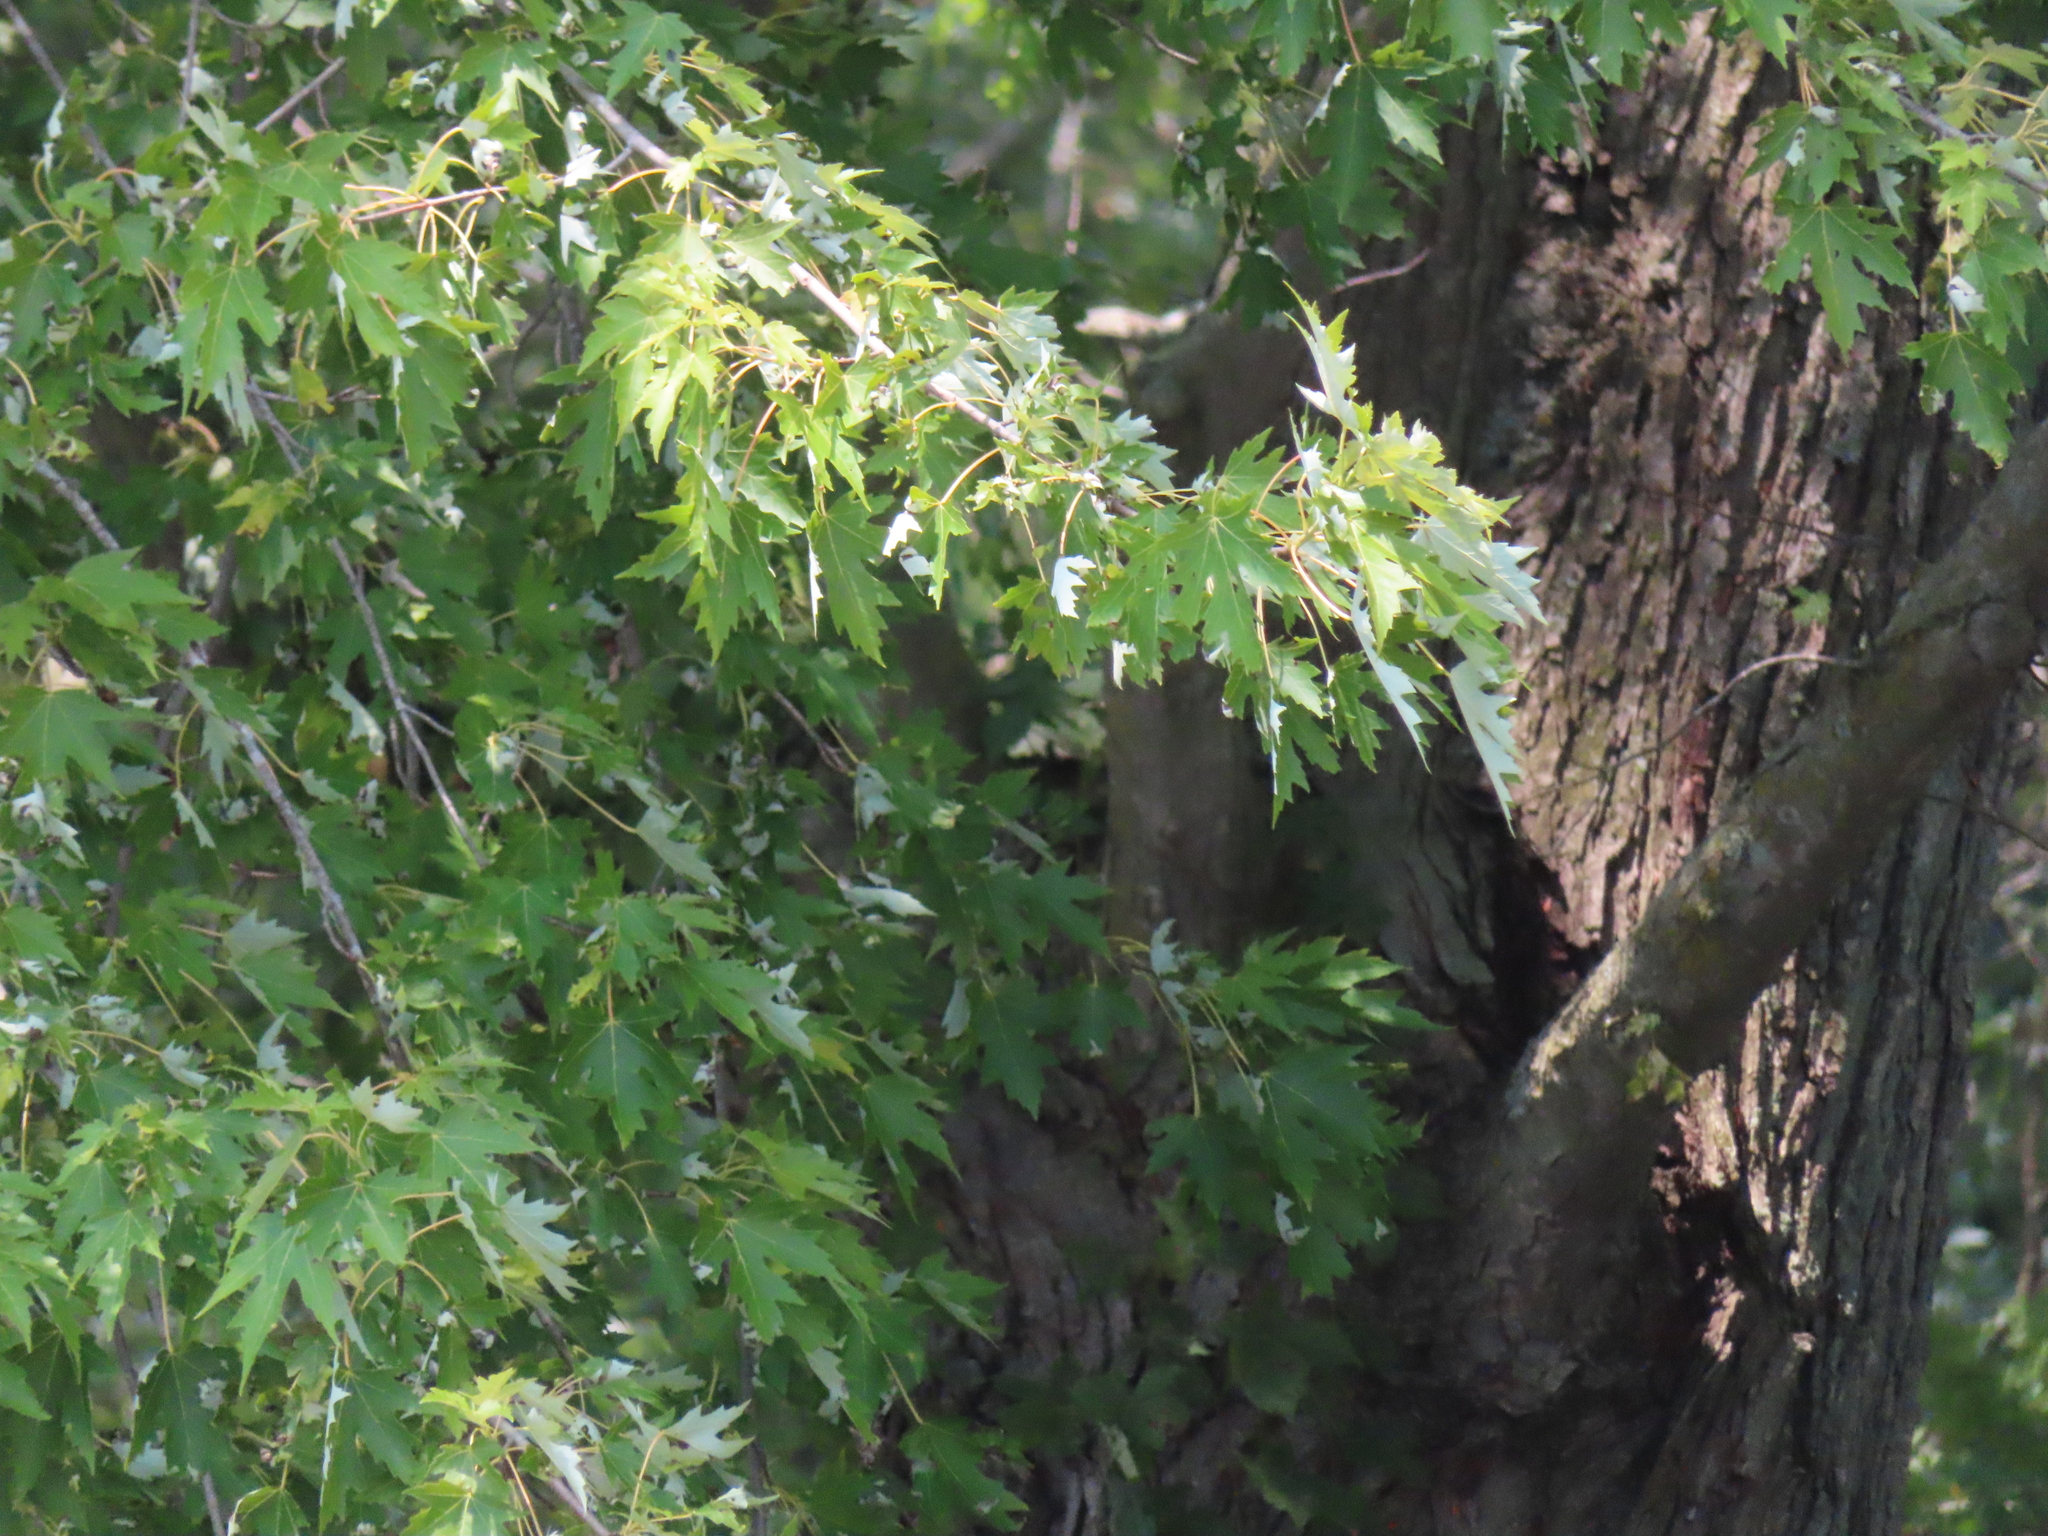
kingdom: Plantae
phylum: Tracheophyta
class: Magnoliopsida
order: Sapindales
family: Sapindaceae
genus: Acer
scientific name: Acer saccharinum
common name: Silver maple
